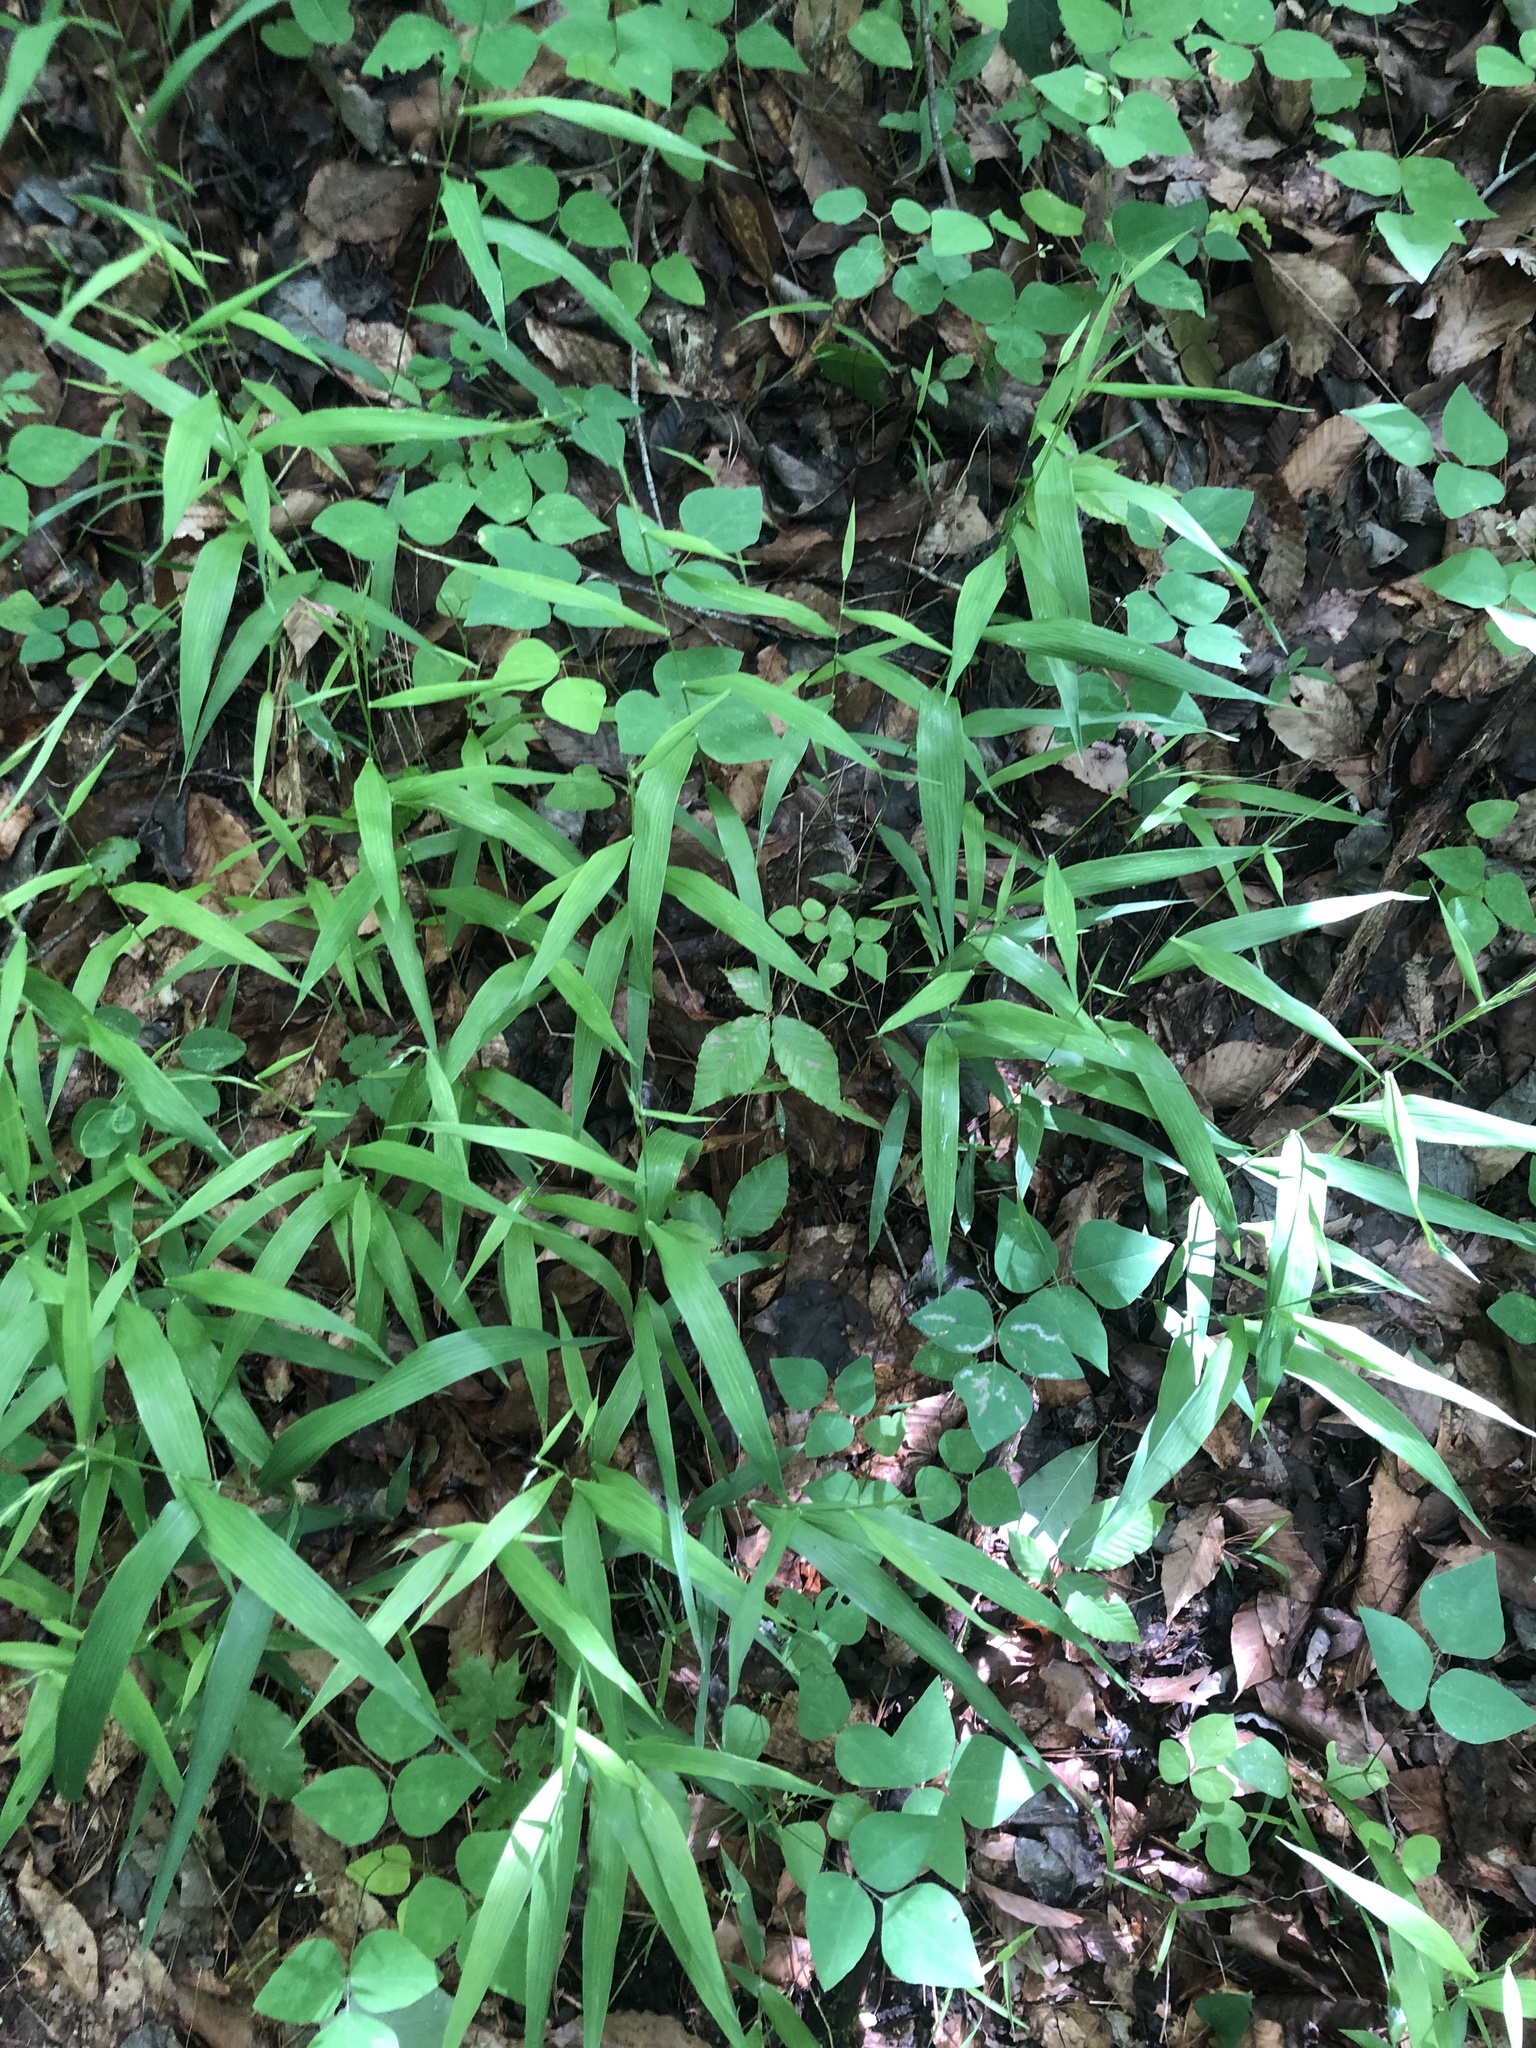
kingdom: Plantae
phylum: Tracheophyta
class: Liliopsida
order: Poales
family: Poaceae
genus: Brachyelytrum
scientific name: Brachyelytrum erectum
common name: Bearded shorthusk
